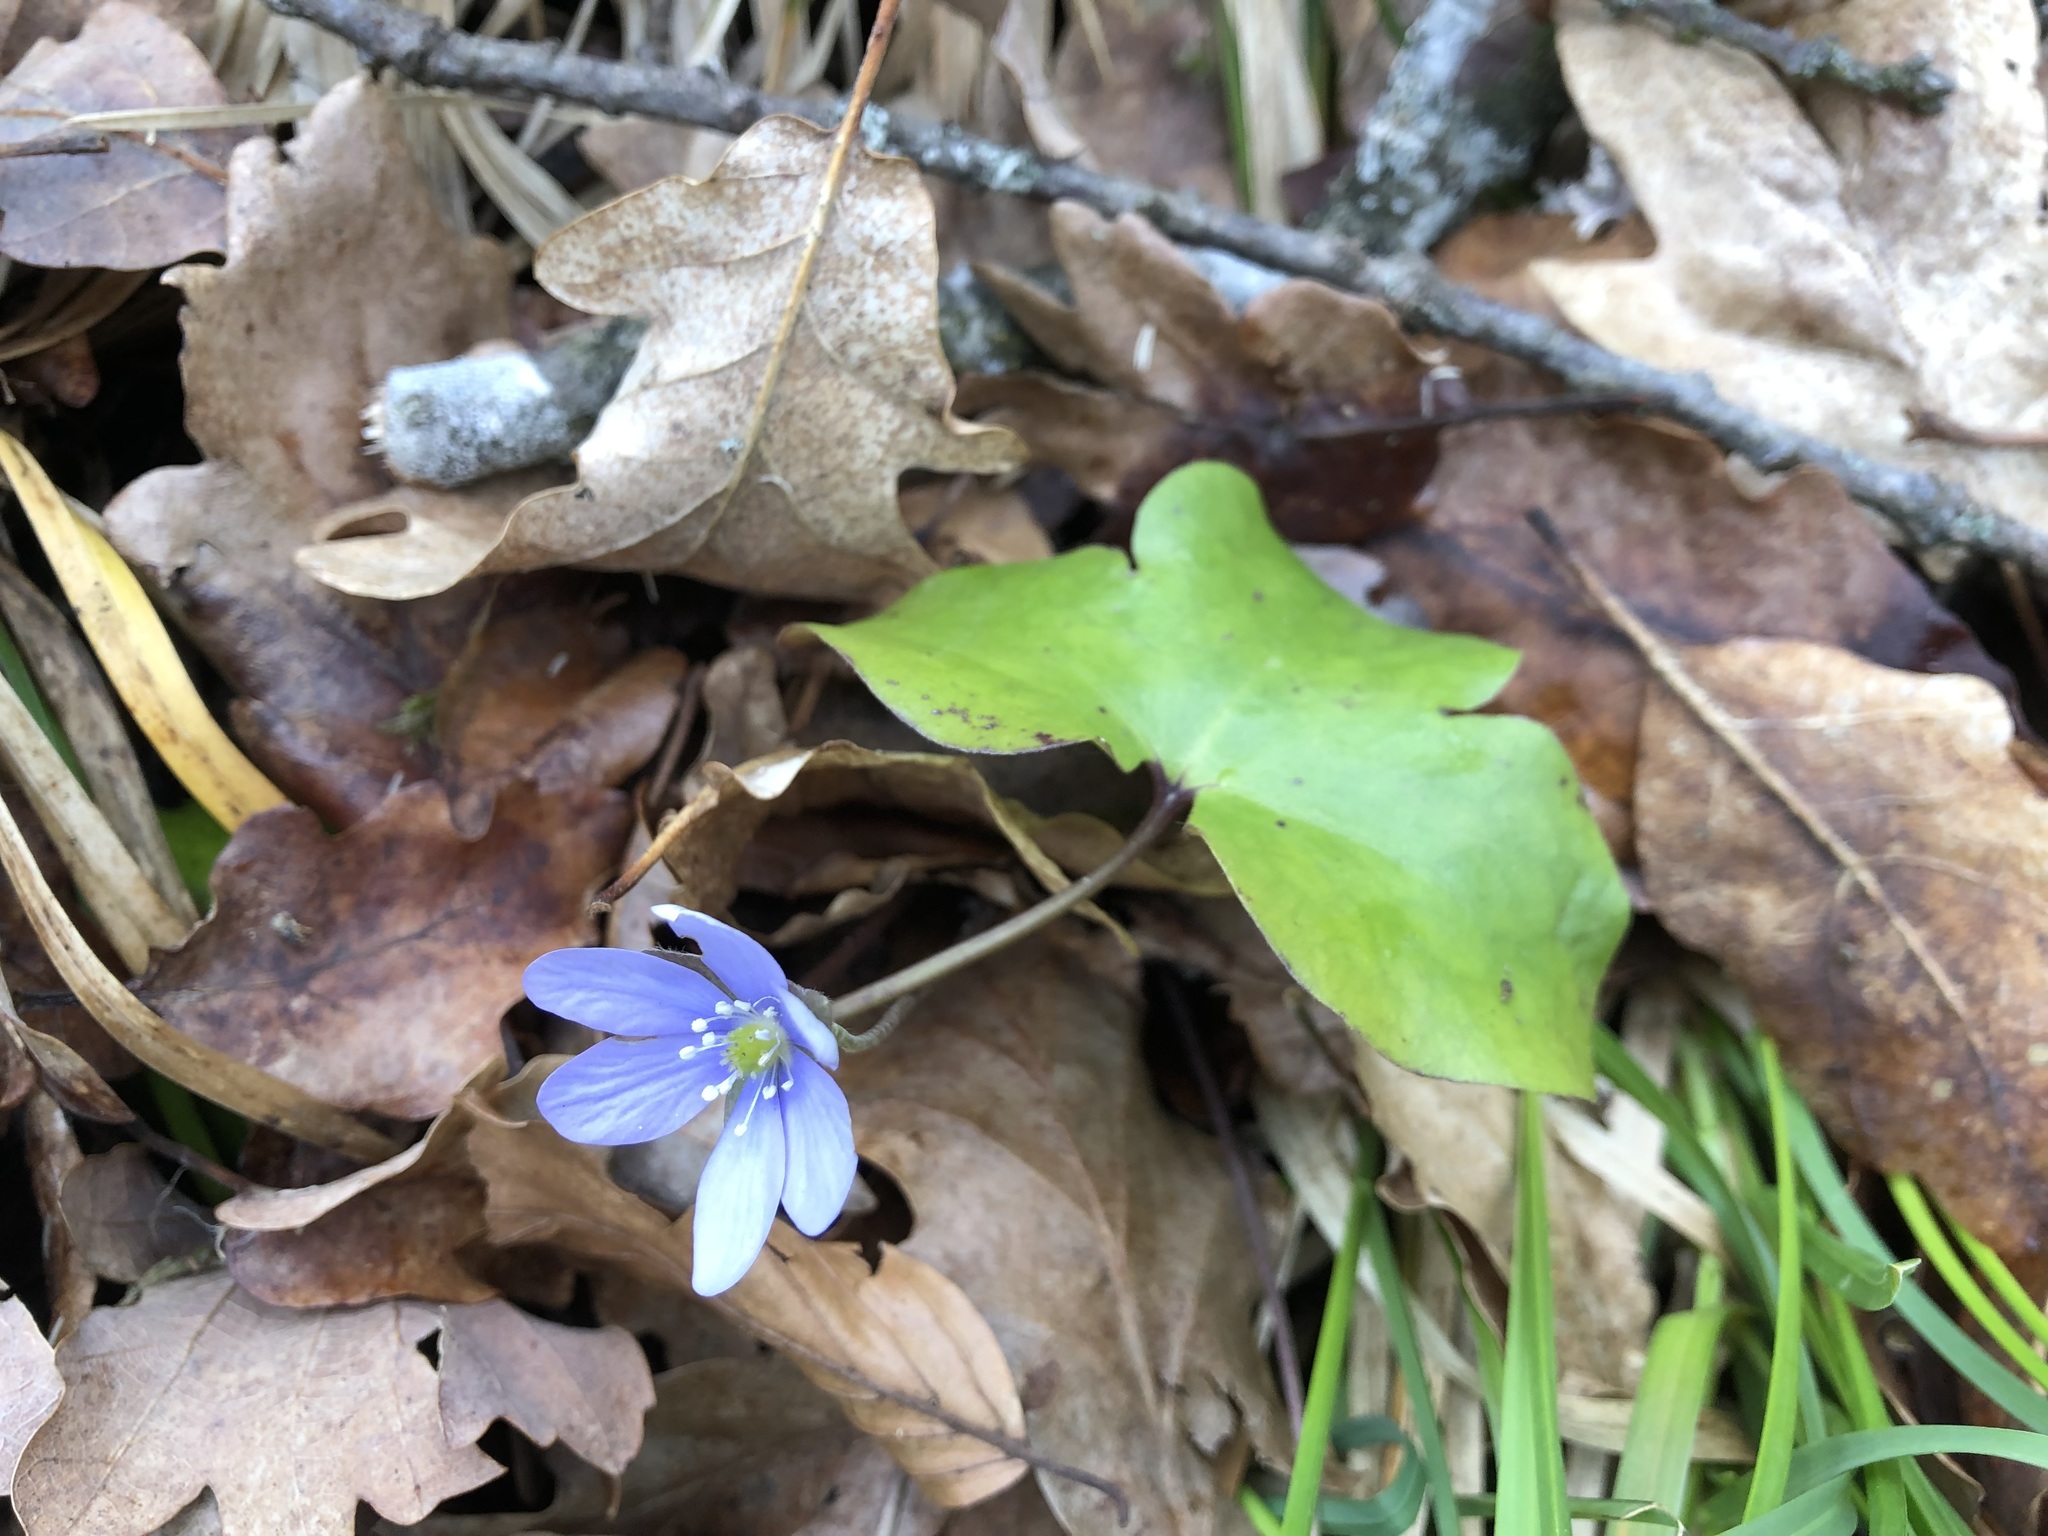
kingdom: Plantae
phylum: Tracheophyta
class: Magnoliopsida
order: Ranunculales
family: Ranunculaceae
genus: Hepatica
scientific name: Hepatica nobilis
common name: Liverleaf
